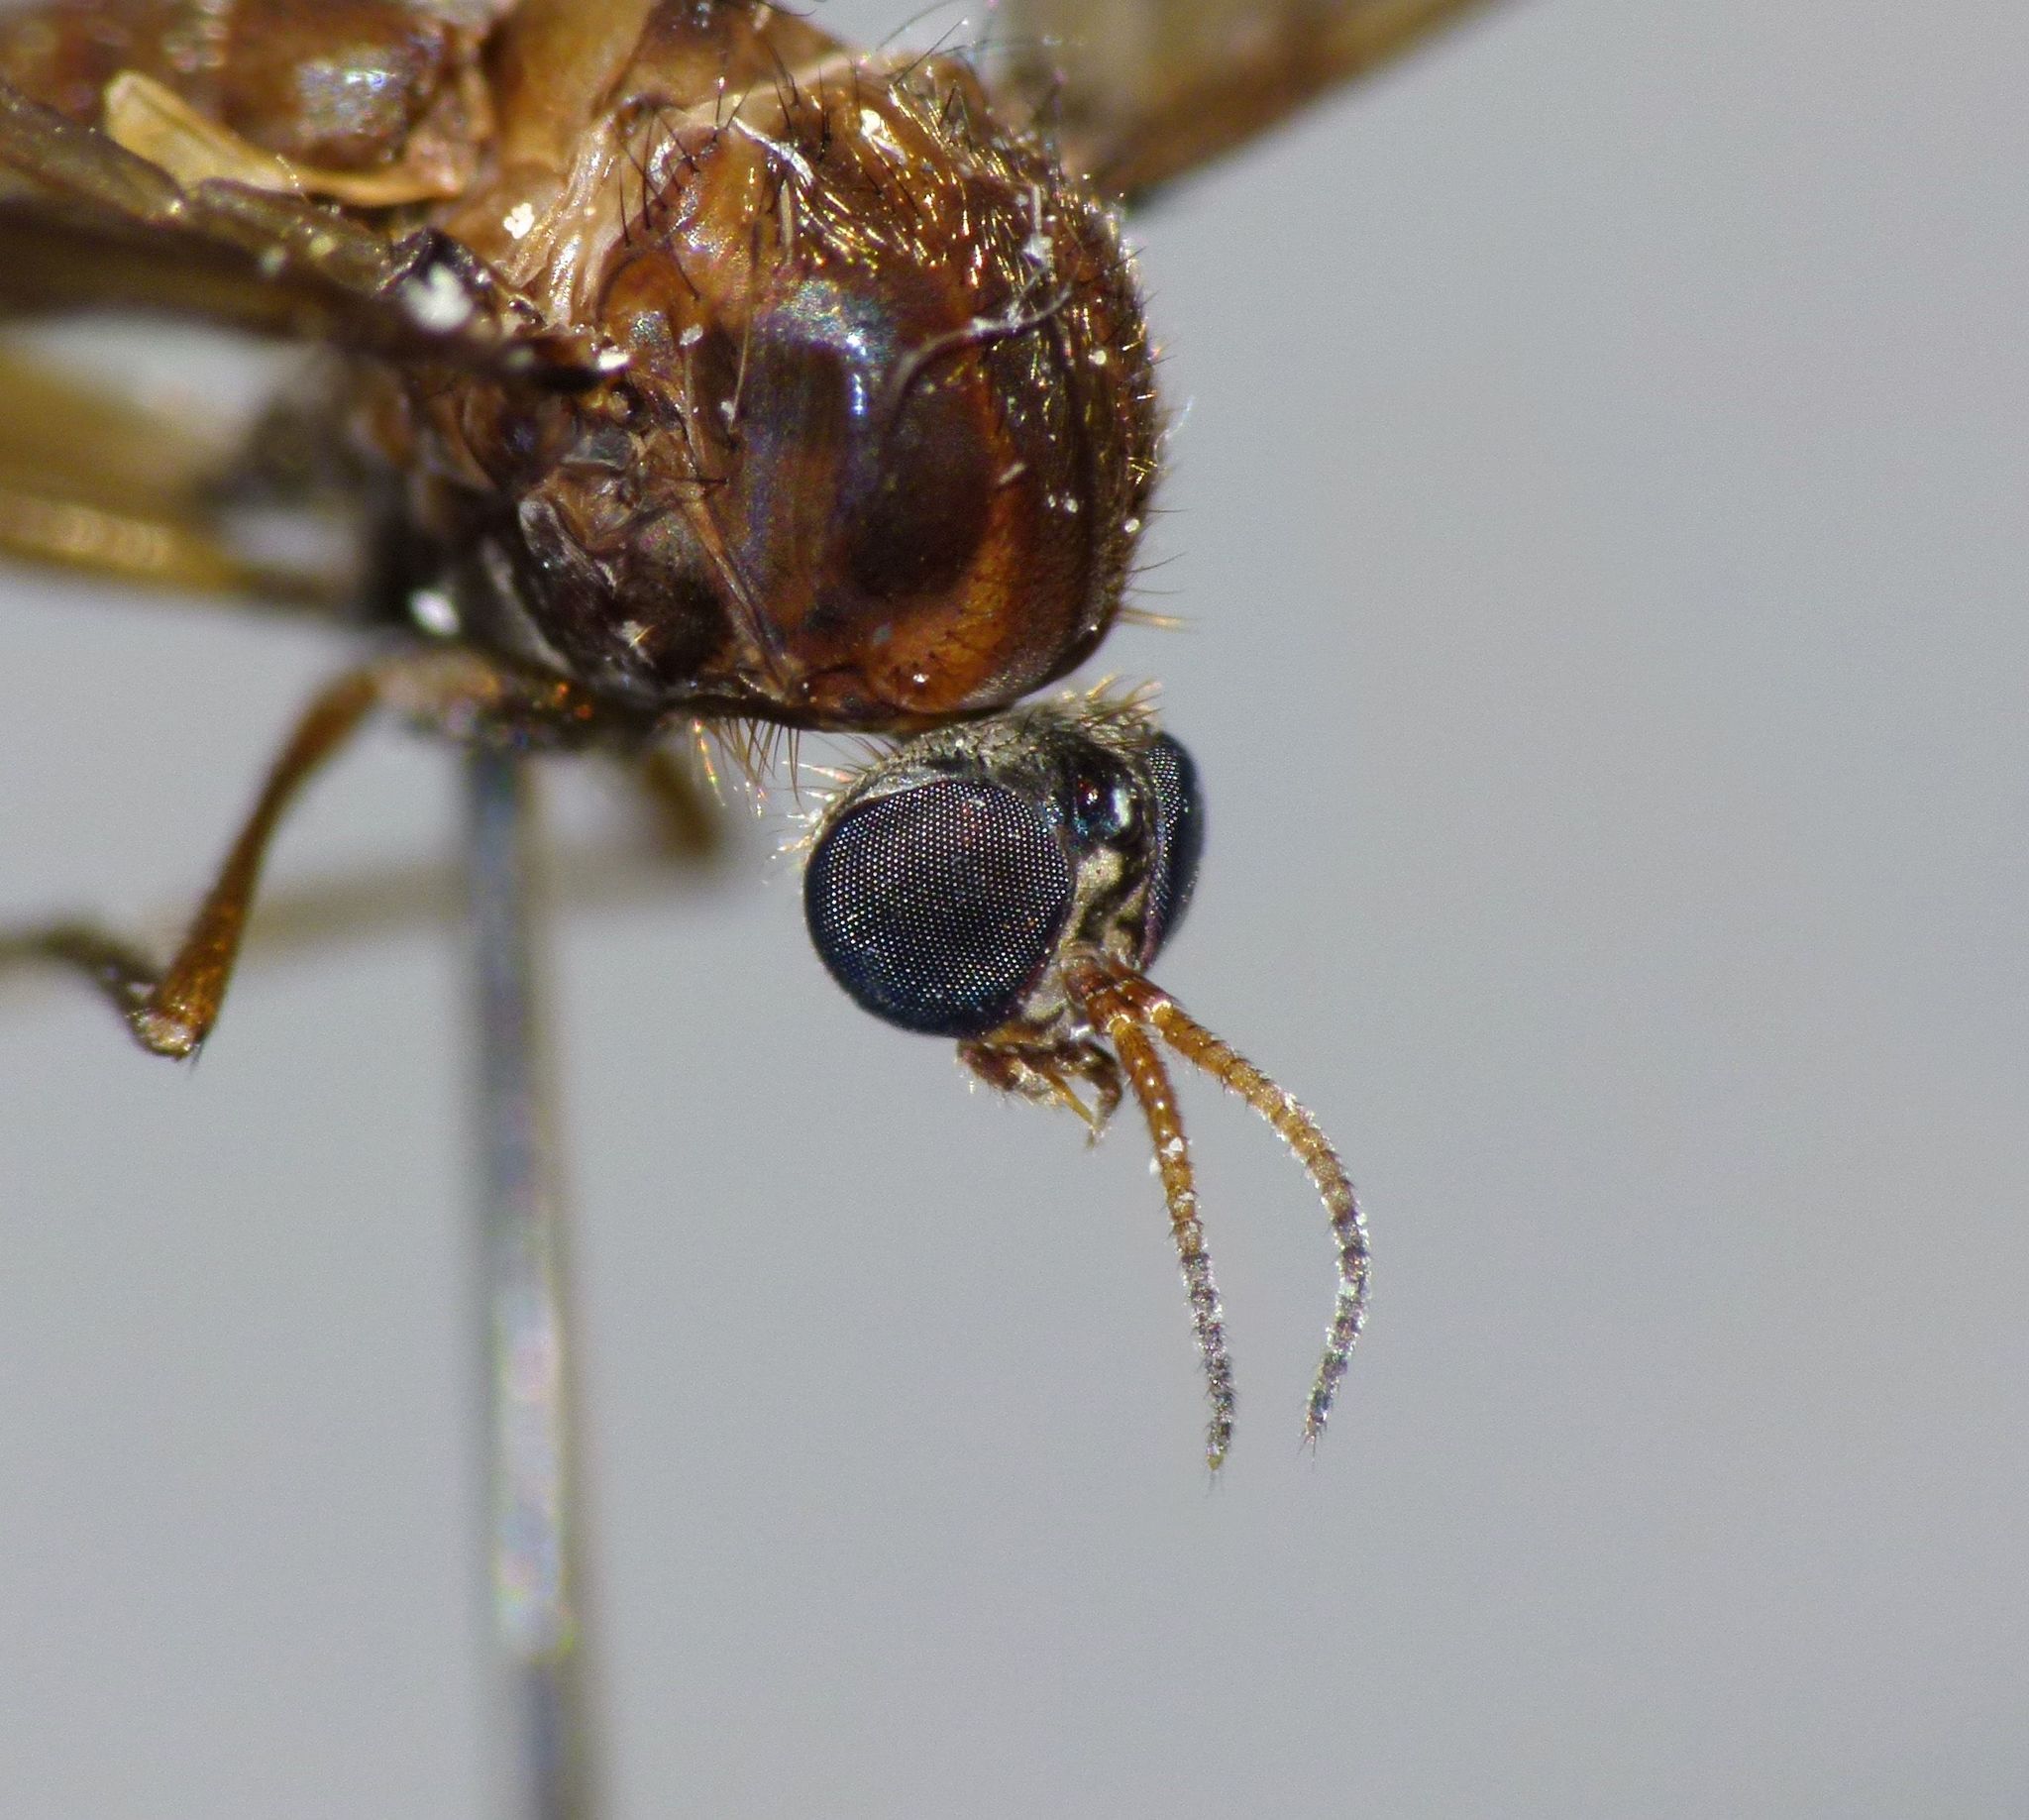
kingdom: Animalia
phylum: Arthropoda
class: Insecta
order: Diptera
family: Anisopodidae
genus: Sylvicola
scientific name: Sylvicola neozelandicus
